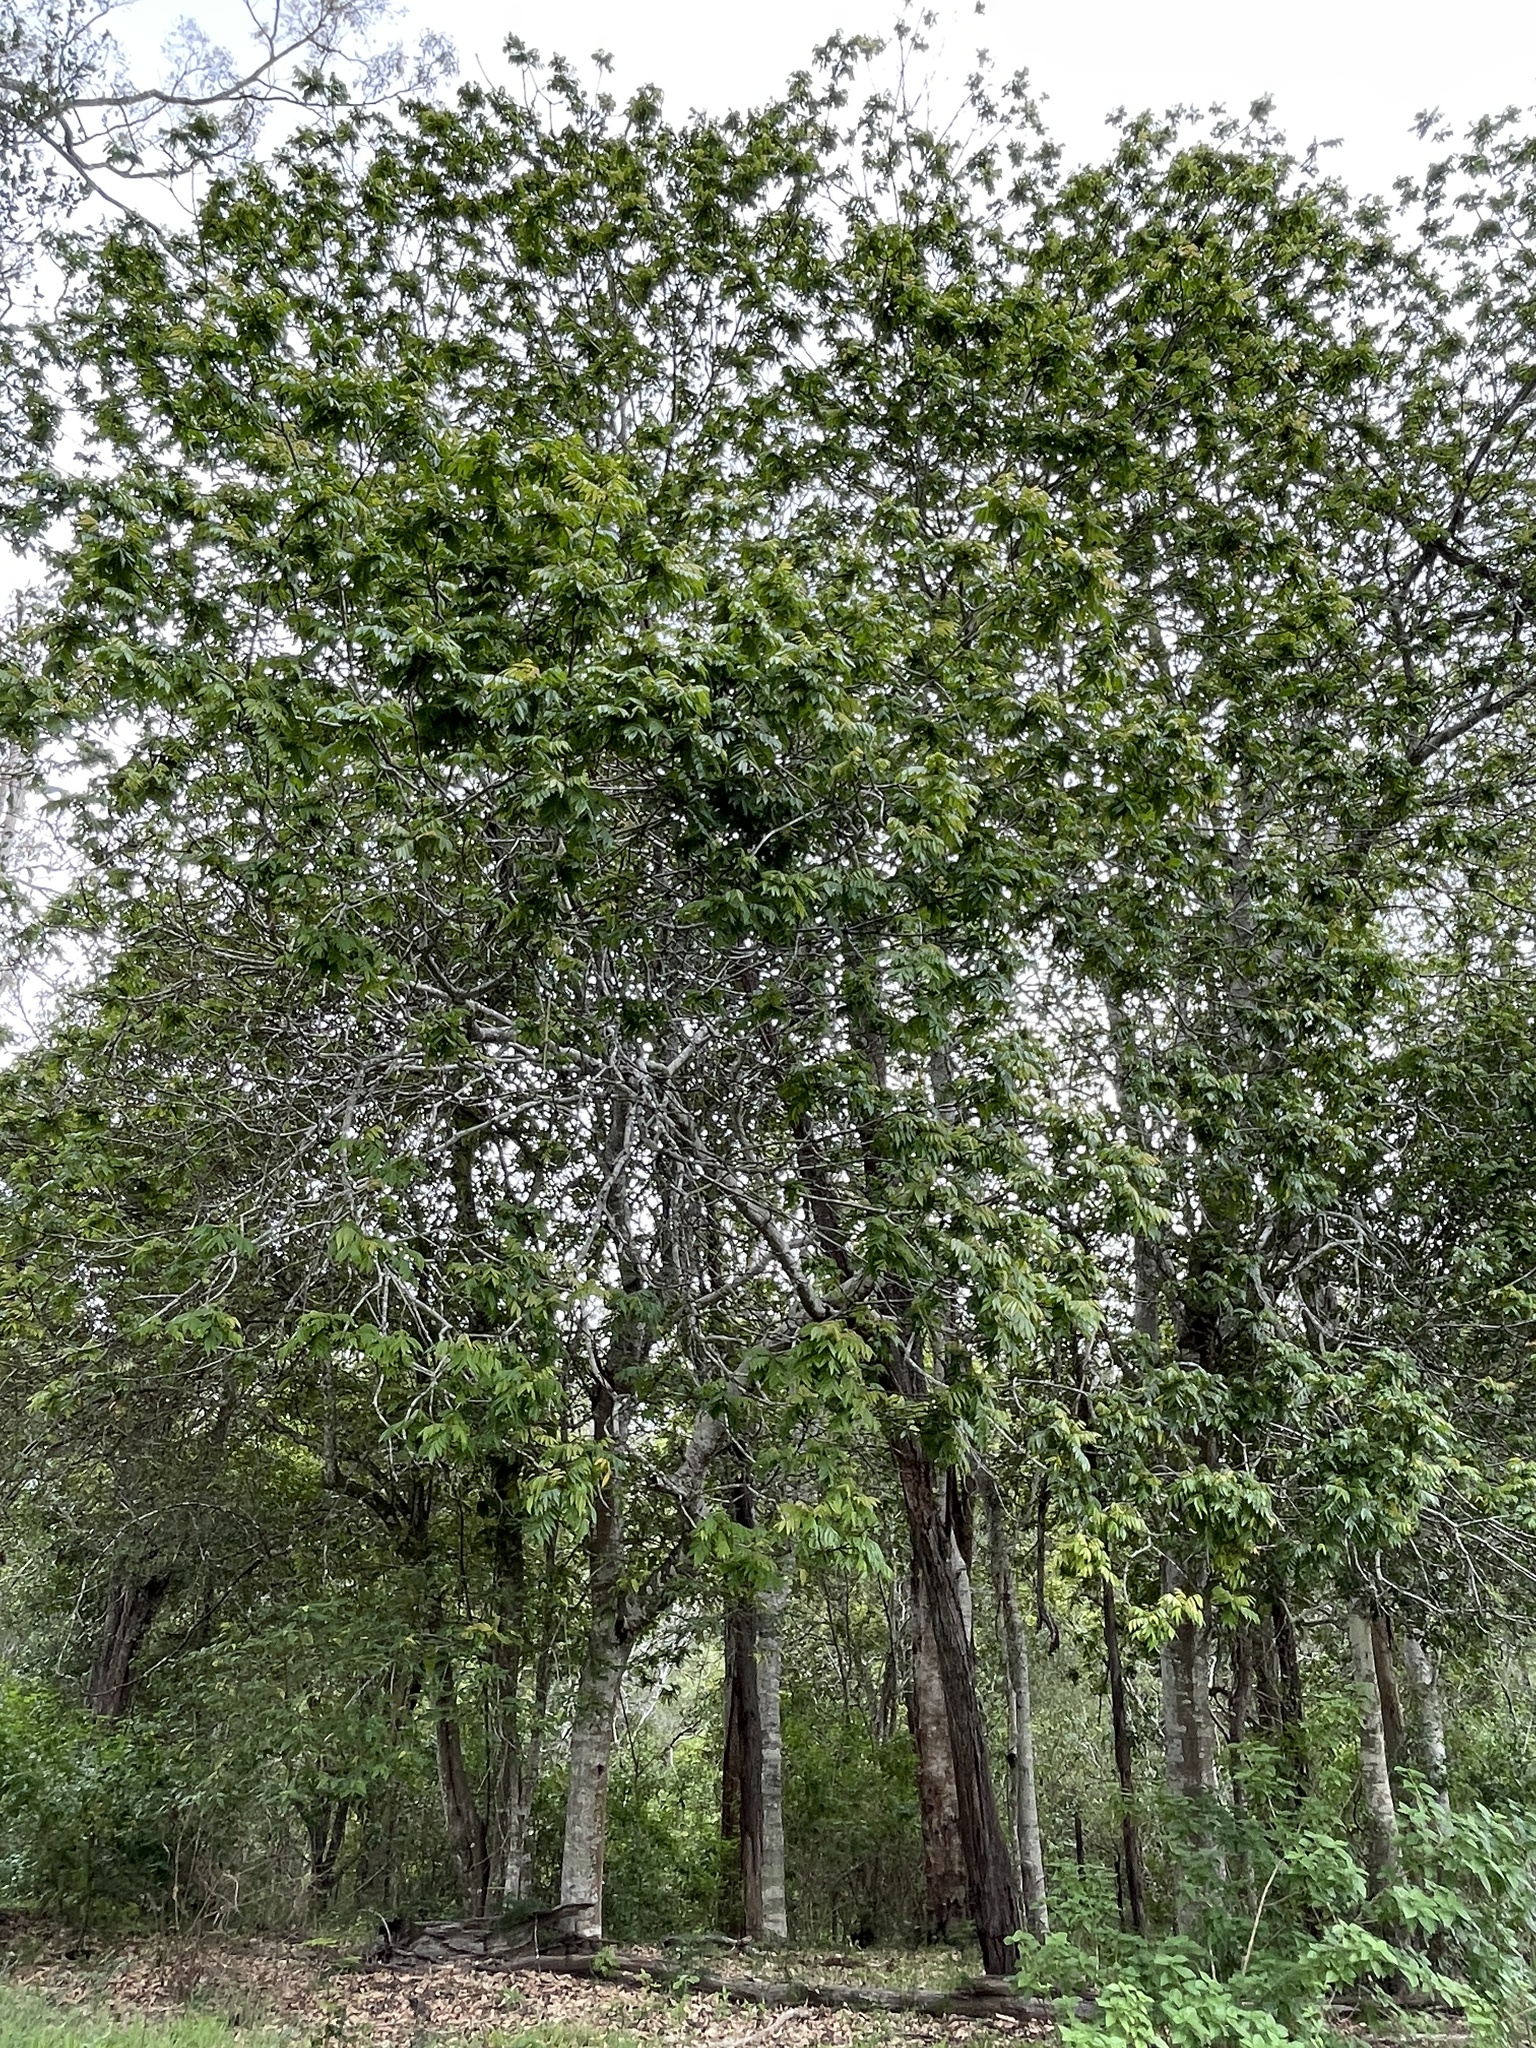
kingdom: Plantae
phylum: Tracheophyta
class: Magnoliopsida
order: Sapindales
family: Sapindaceae
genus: Jagera
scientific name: Jagera pseudorhus
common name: Fern-leaf-tamarind
